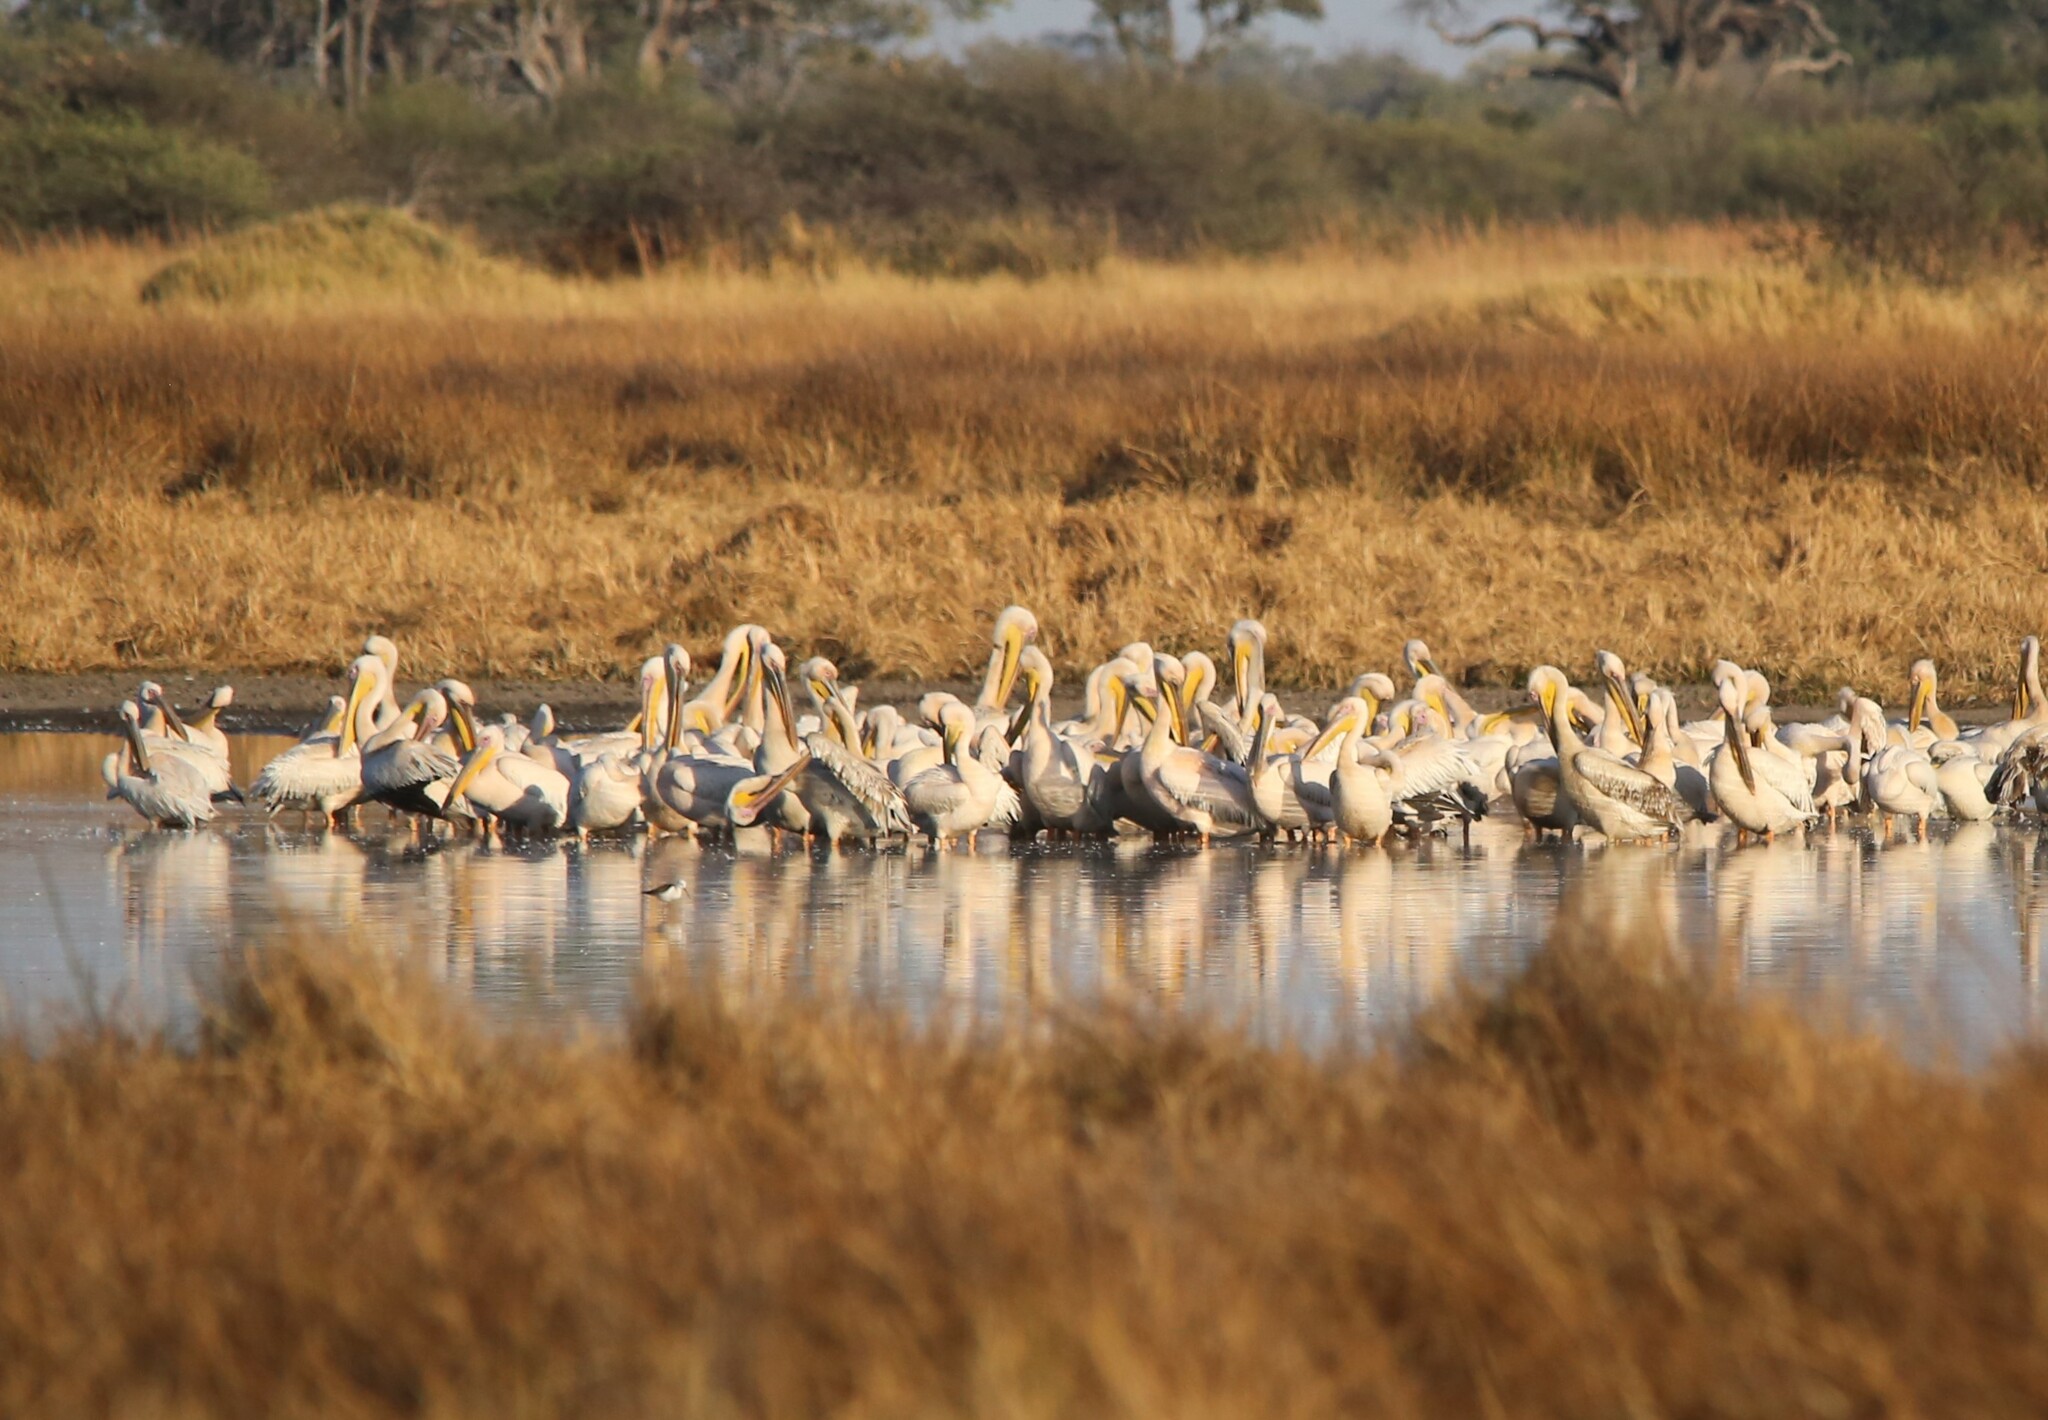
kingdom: Animalia
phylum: Chordata
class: Aves
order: Pelecaniformes
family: Pelecanidae
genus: Pelecanus
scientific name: Pelecanus onocrotalus
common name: Great white pelican
